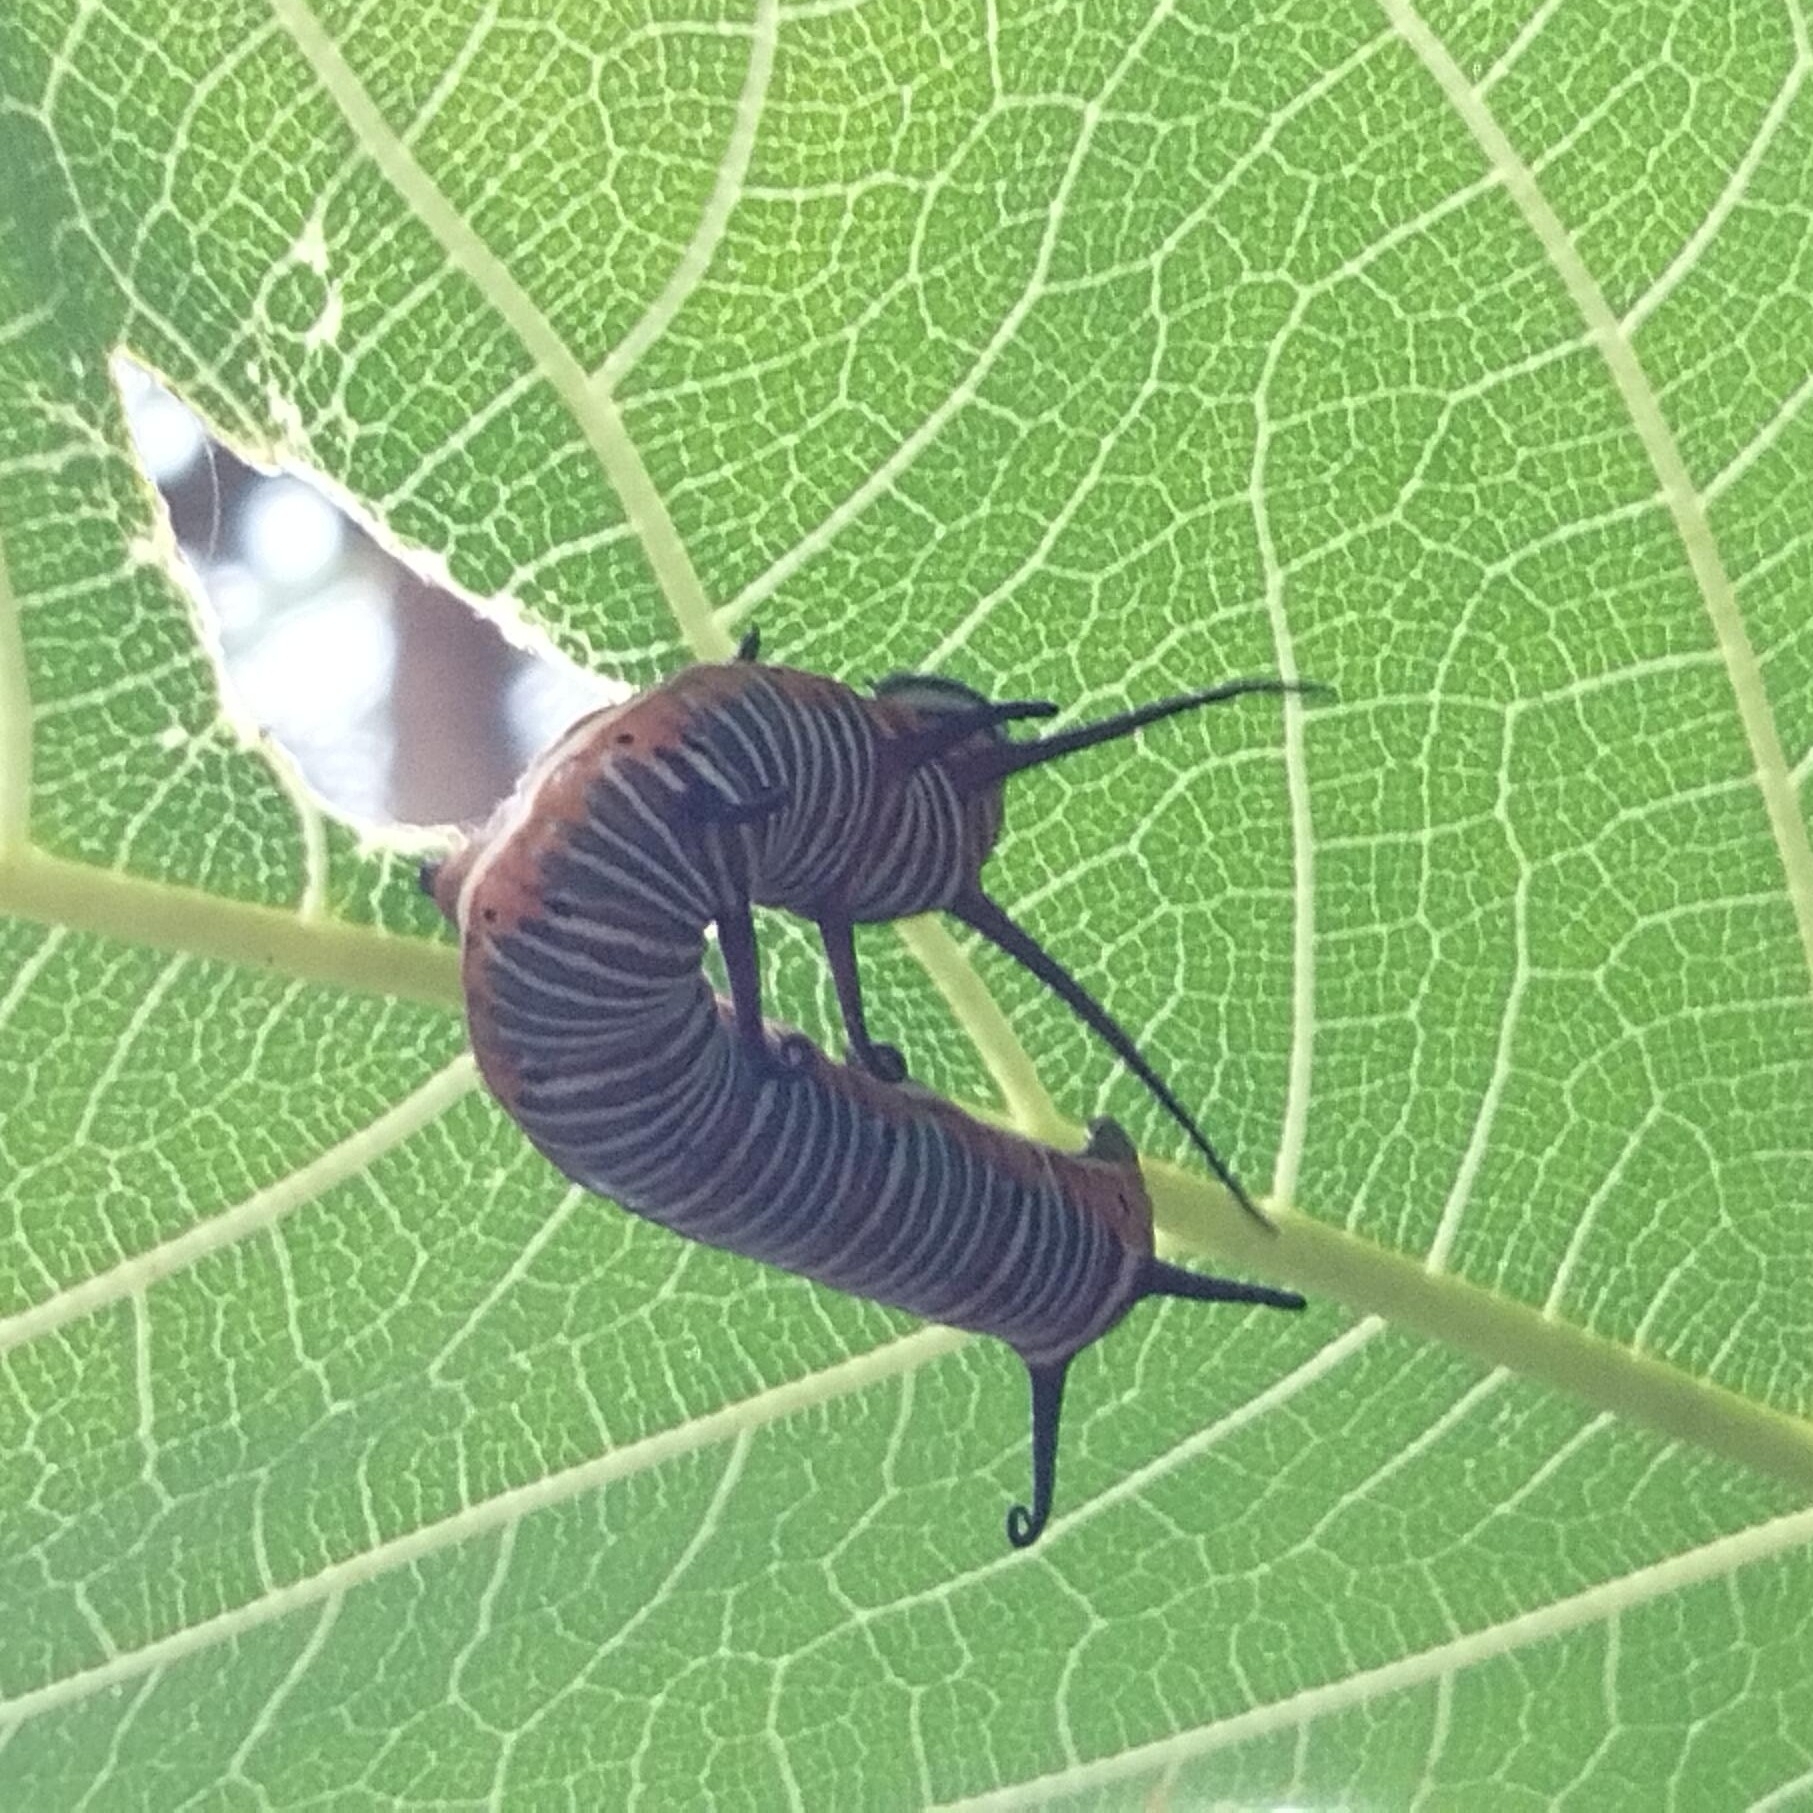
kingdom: Animalia
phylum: Arthropoda
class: Insecta
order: Lepidoptera
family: Nymphalidae
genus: Euploea
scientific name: Euploea core
